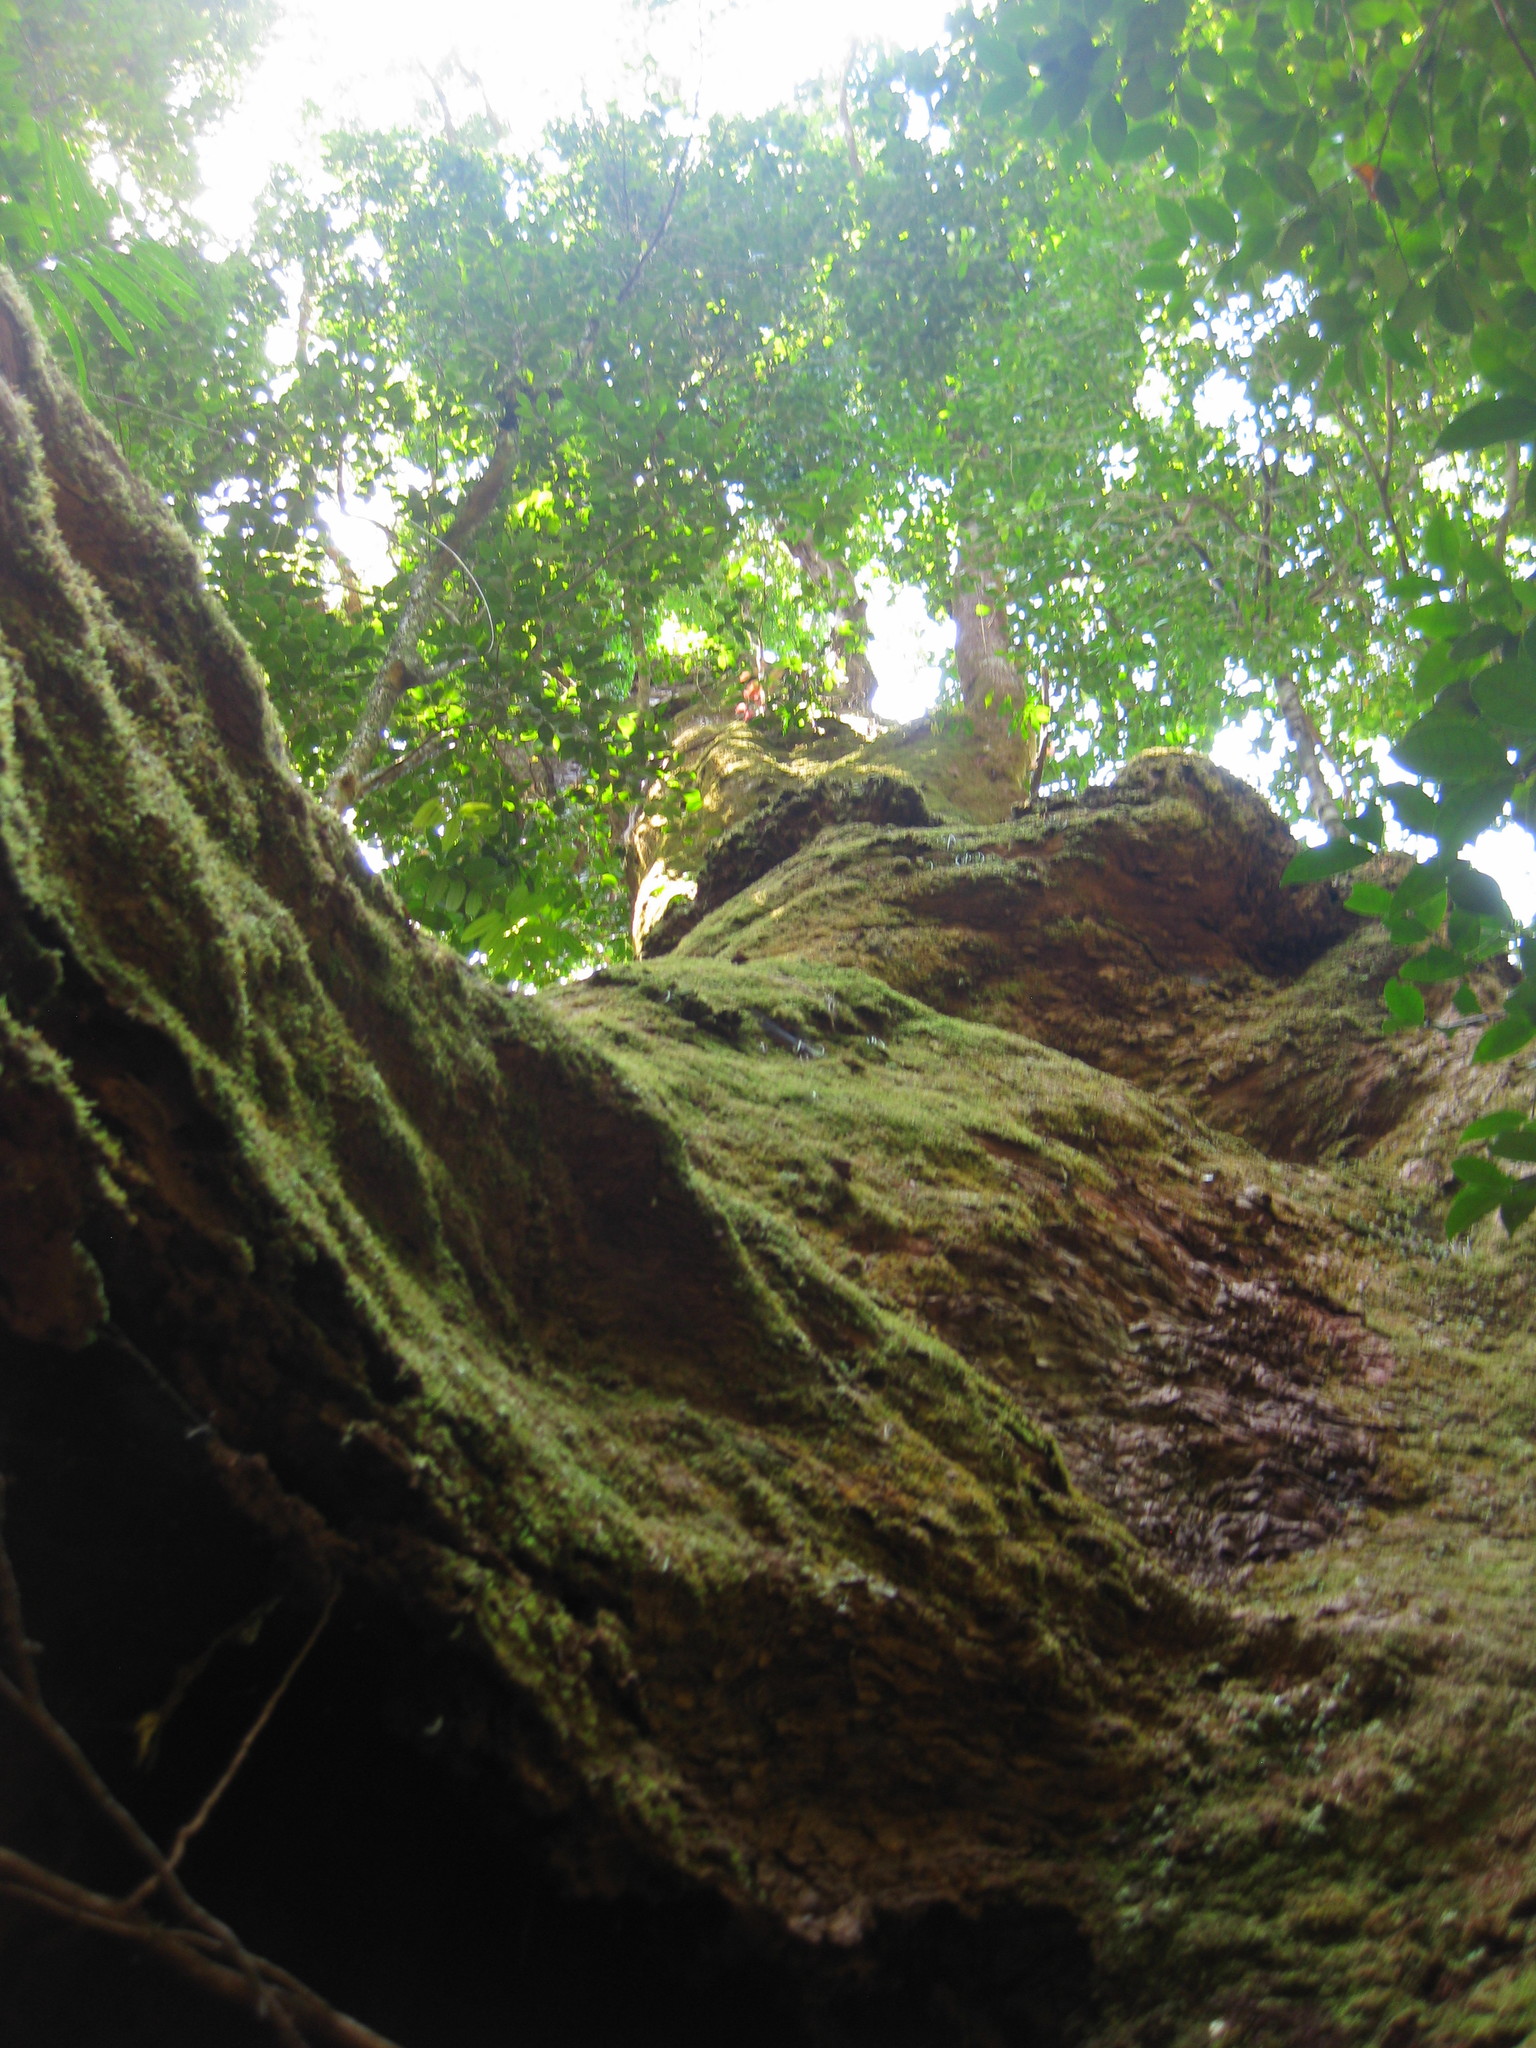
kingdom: Plantae
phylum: Tracheophyta
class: Magnoliopsida
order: Myrtales
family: Myrtaceae
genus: Stockwellia
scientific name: Stockwellia quadrifida
